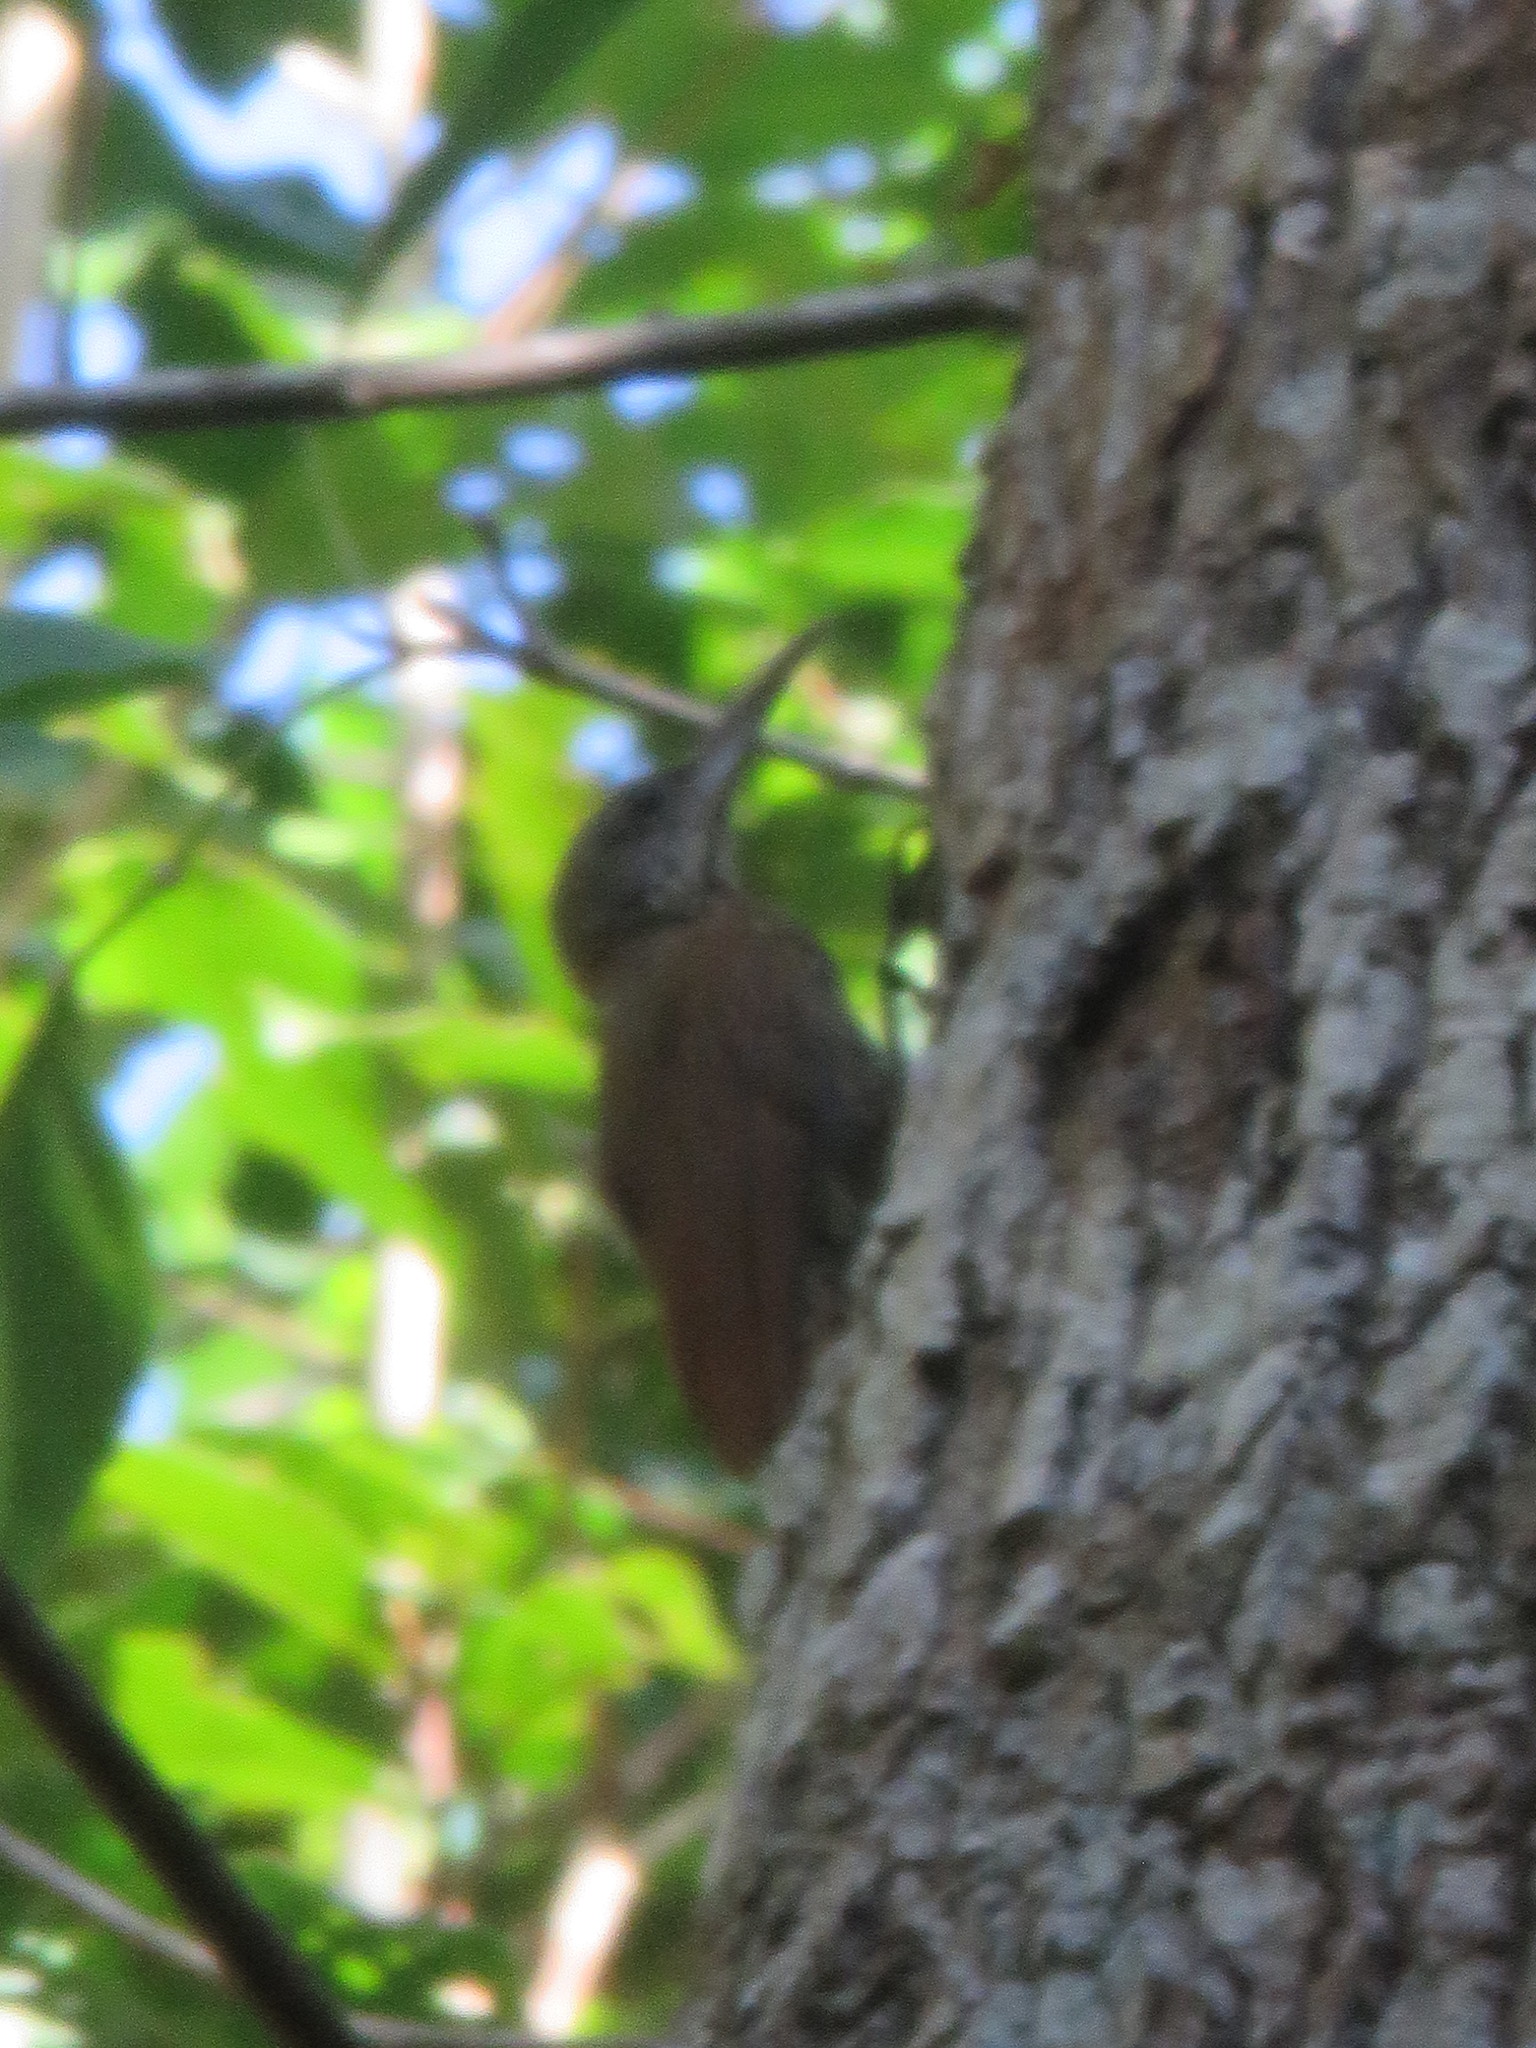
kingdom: Animalia
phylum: Chordata
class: Aves
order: Passeriformes
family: Furnariidae
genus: Xiphorhynchus
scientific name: Xiphorhynchus ocellatus
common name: Ocellated woodcreeper
